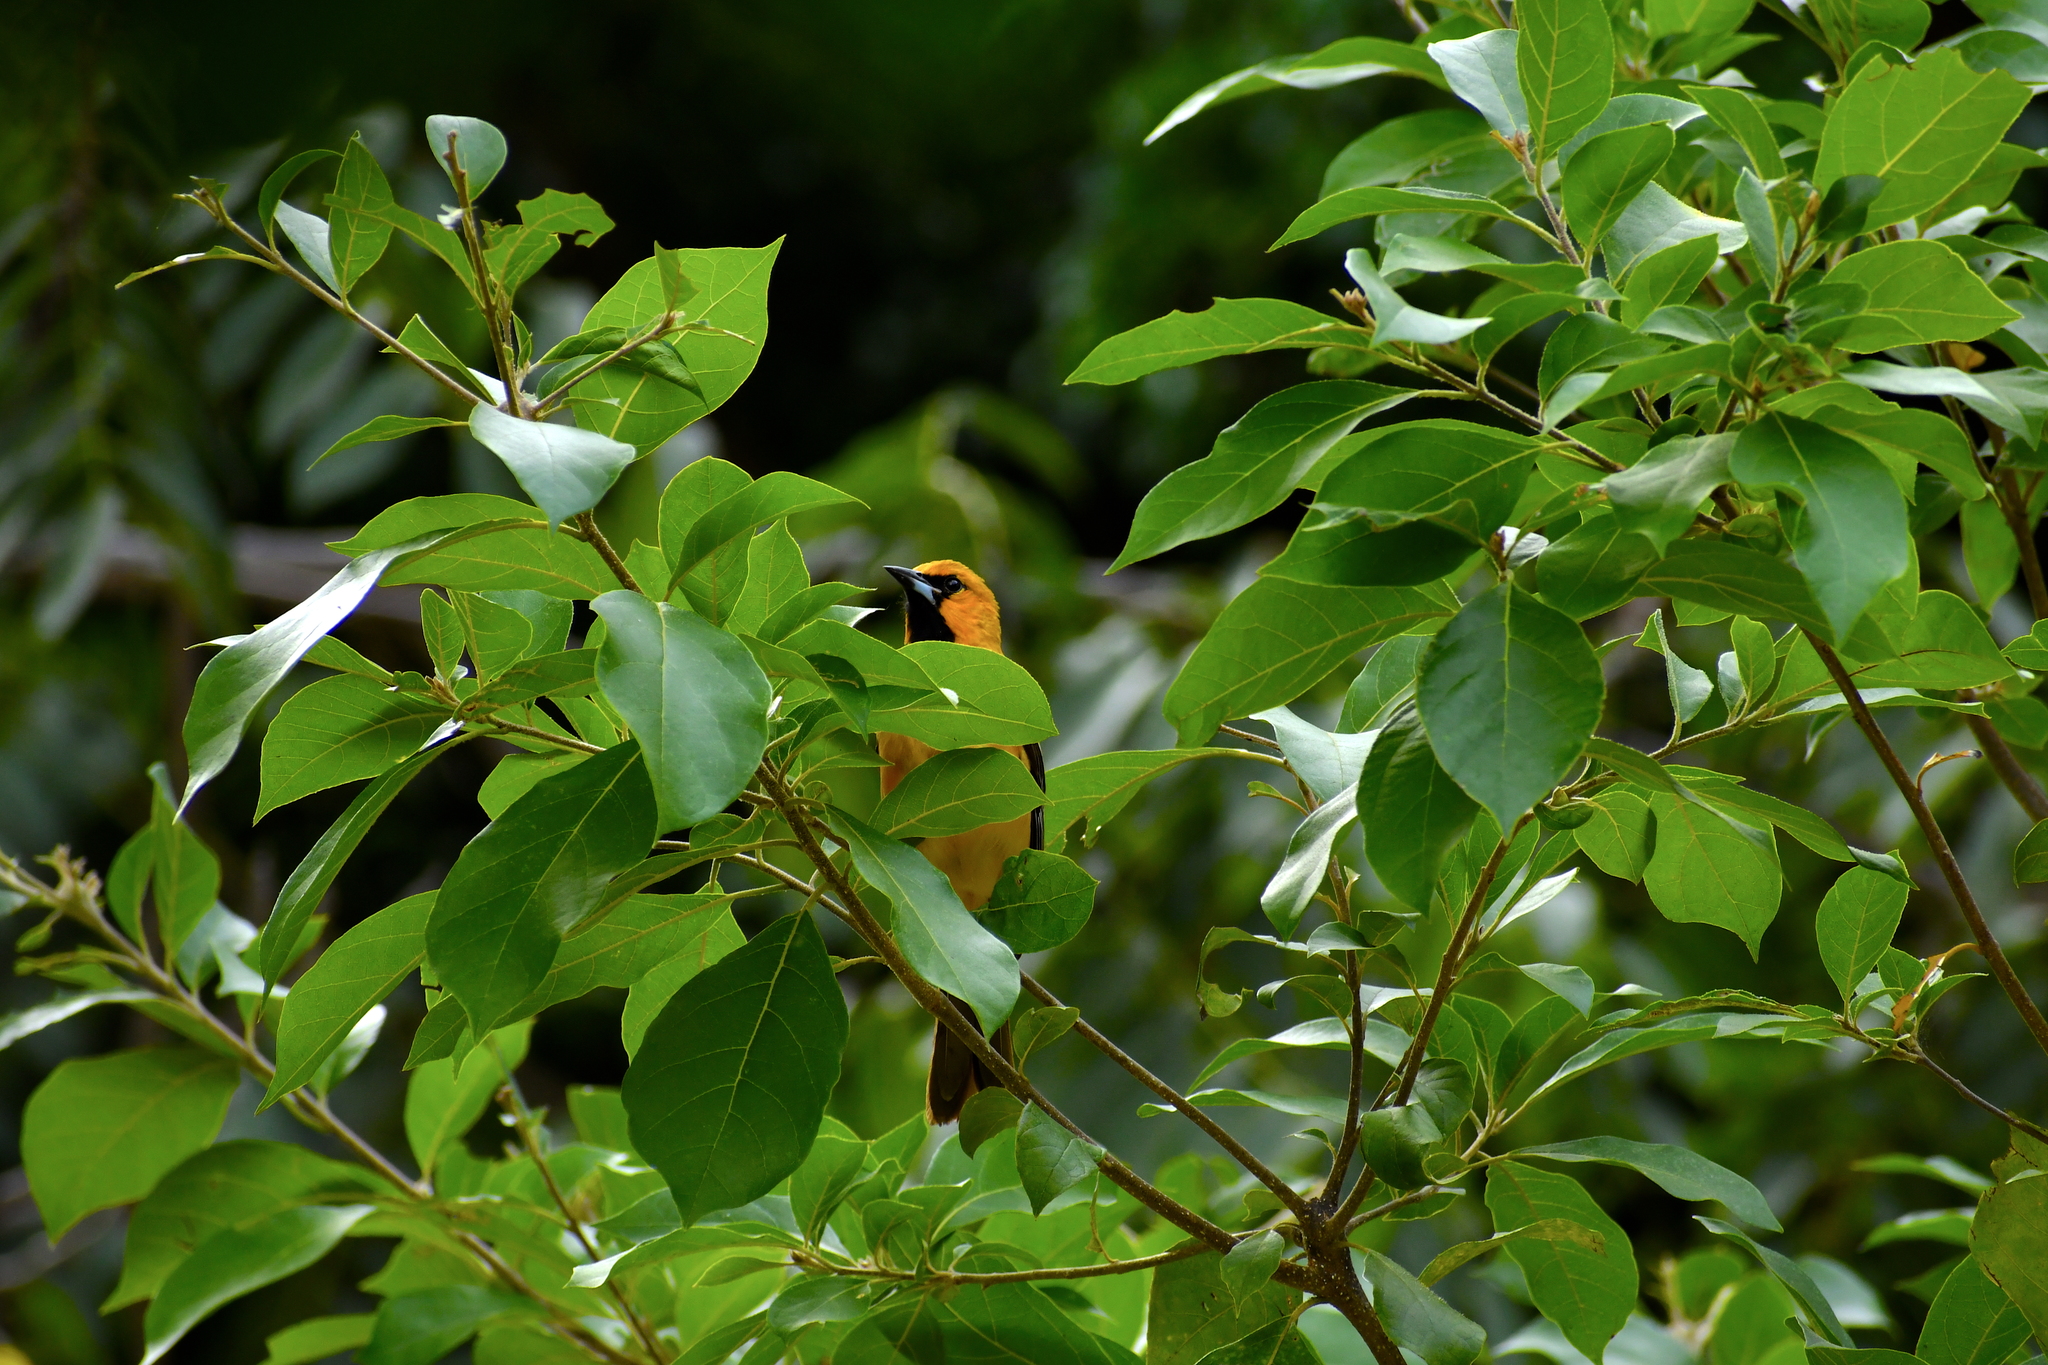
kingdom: Animalia
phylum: Chordata
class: Aves
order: Passeriformes
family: Icteridae
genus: Icterus
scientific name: Icterus pustulatus
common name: Streak-backed oriole
